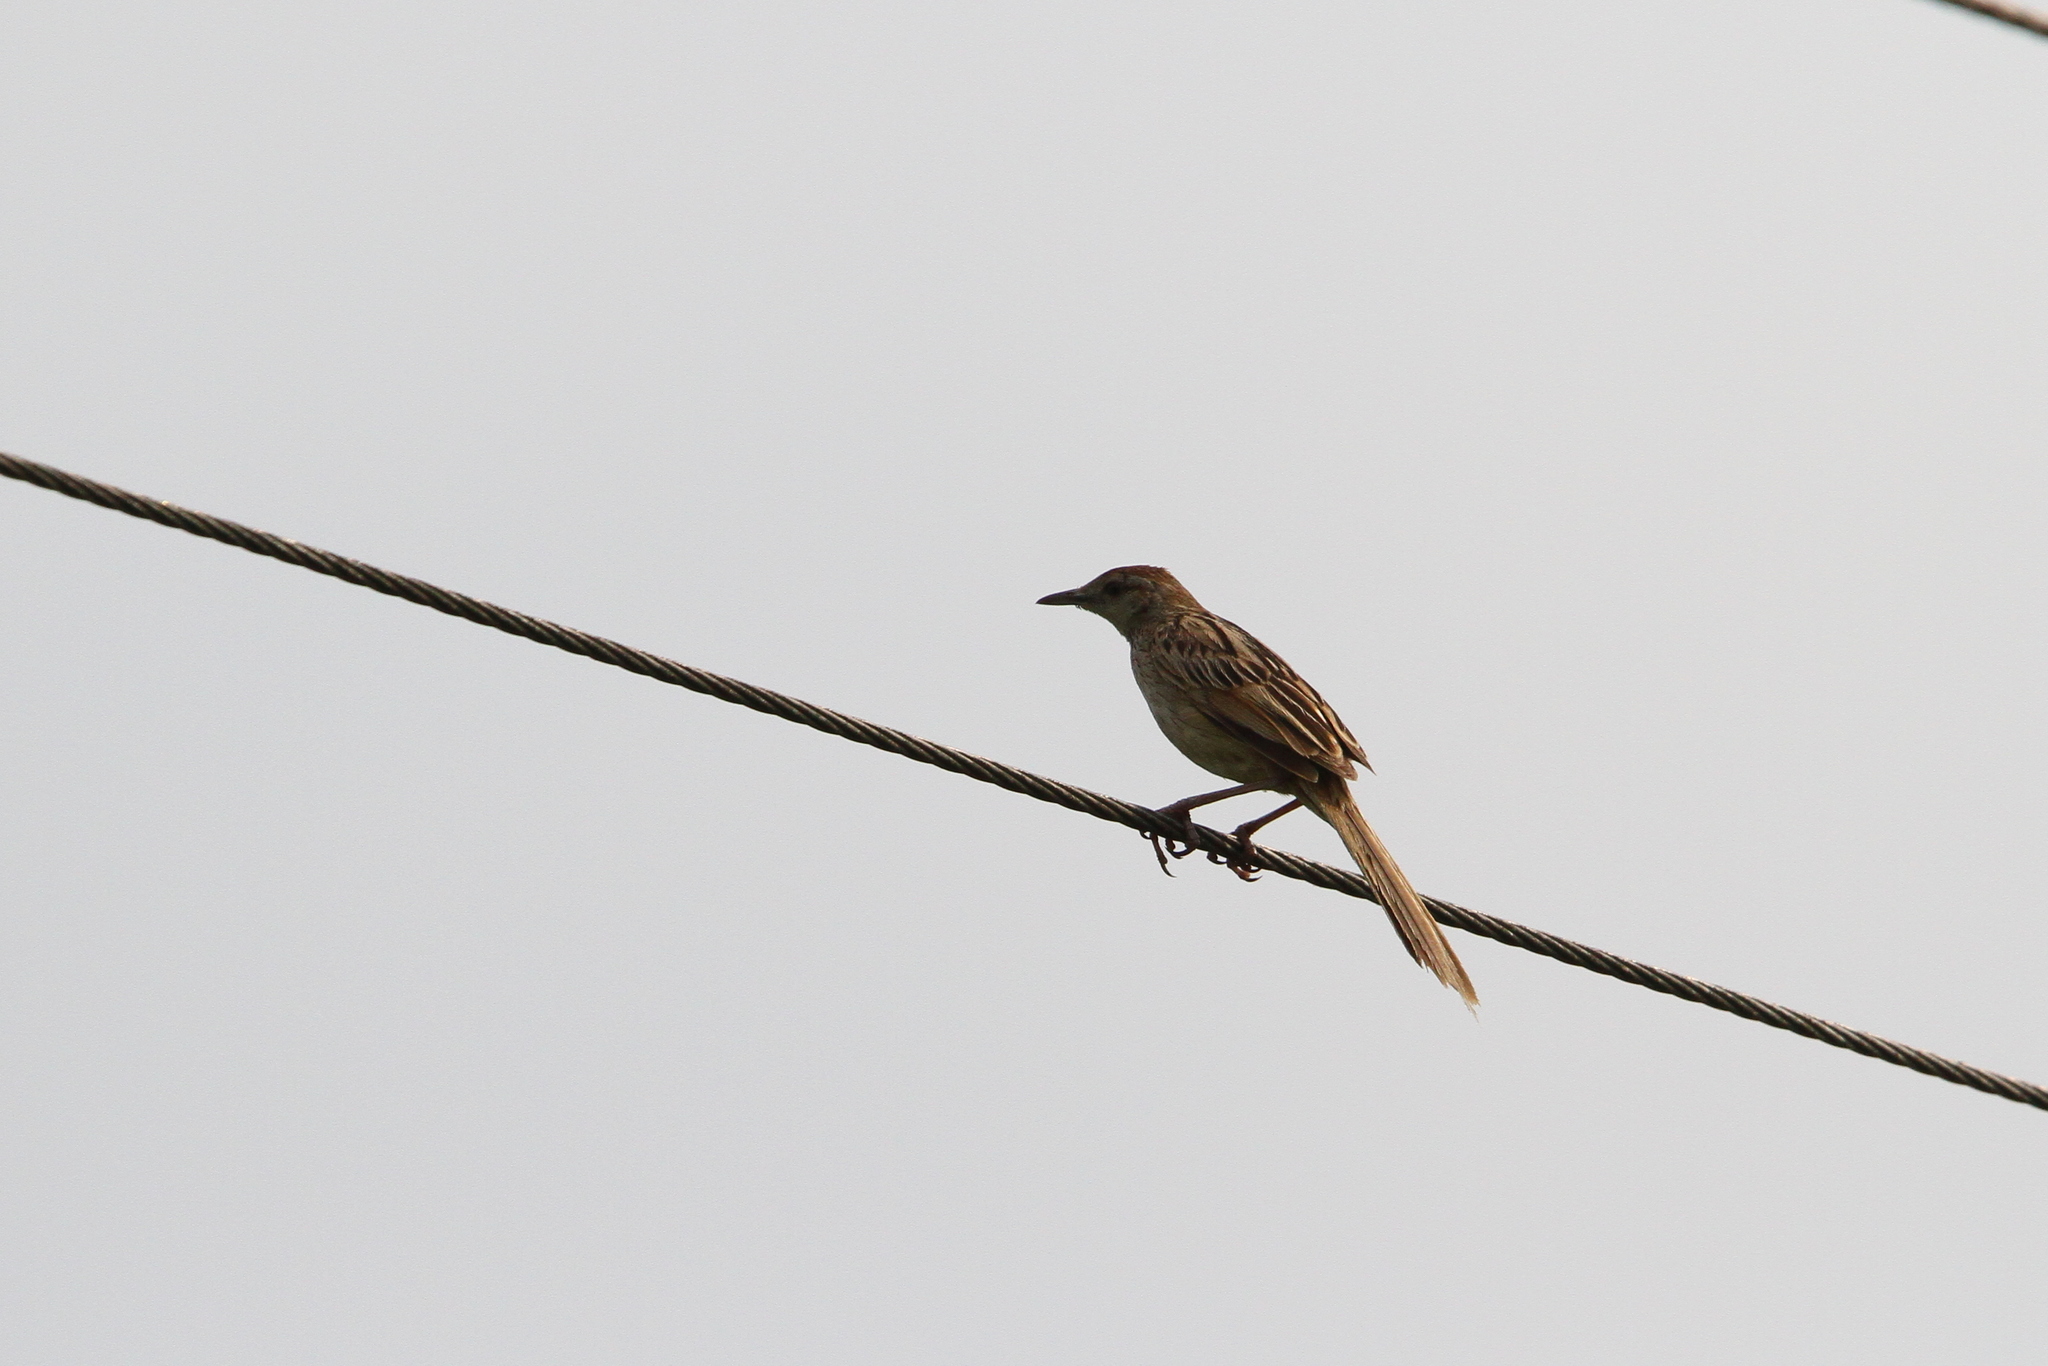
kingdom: Animalia
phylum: Chordata
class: Aves
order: Passeriformes
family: Locustellidae
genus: Megalurus
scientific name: Megalurus palustris
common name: Striated grassbird
